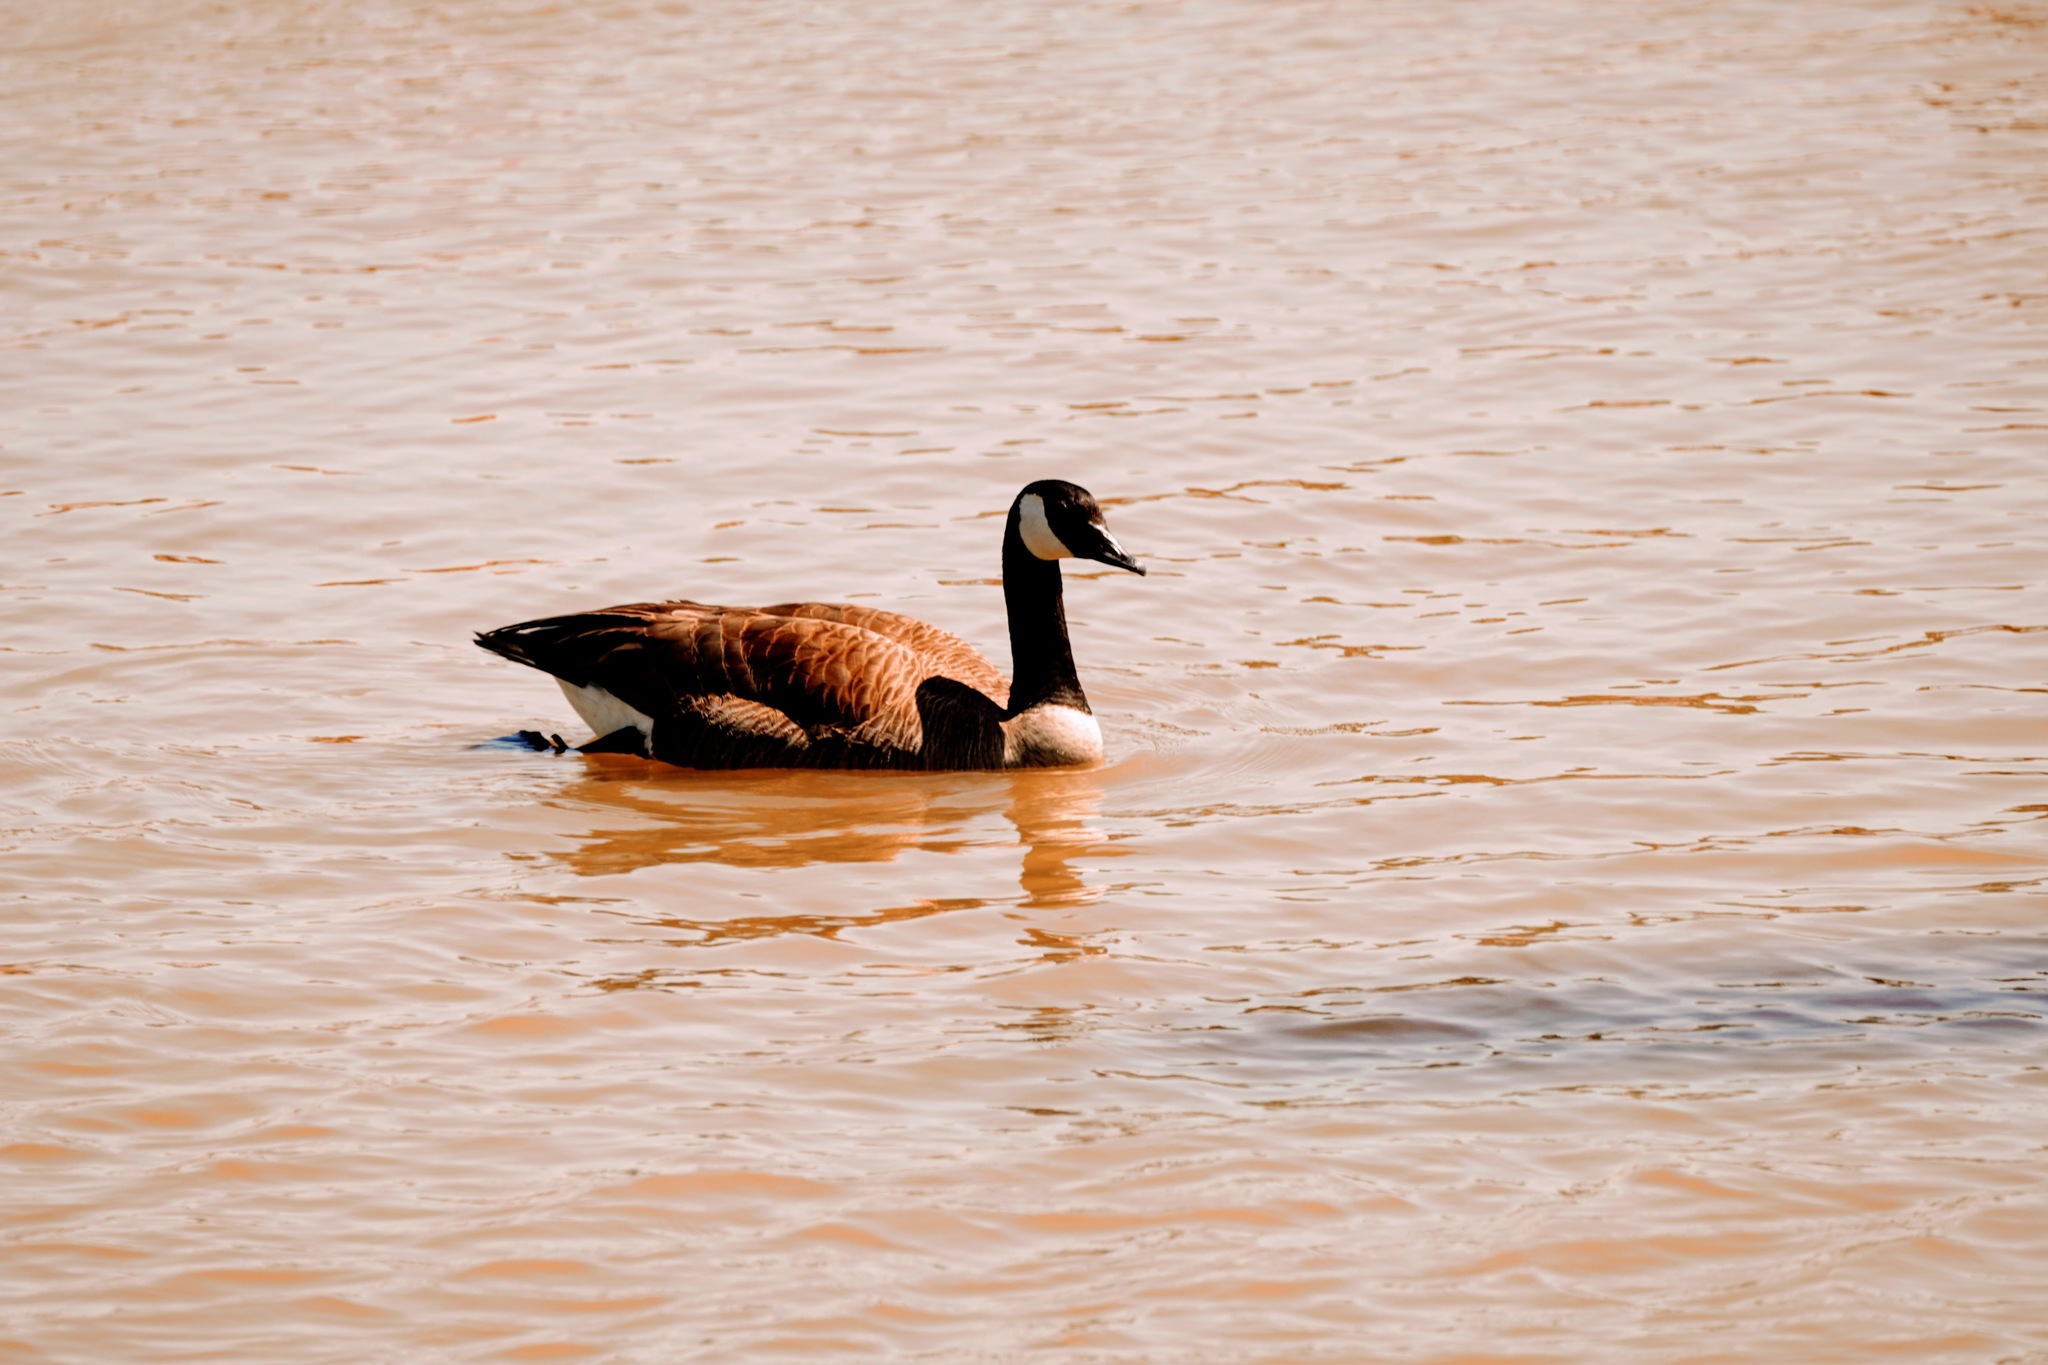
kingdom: Animalia
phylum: Chordata
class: Aves
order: Anseriformes
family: Anatidae
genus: Branta
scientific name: Branta canadensis
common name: Canada goose
